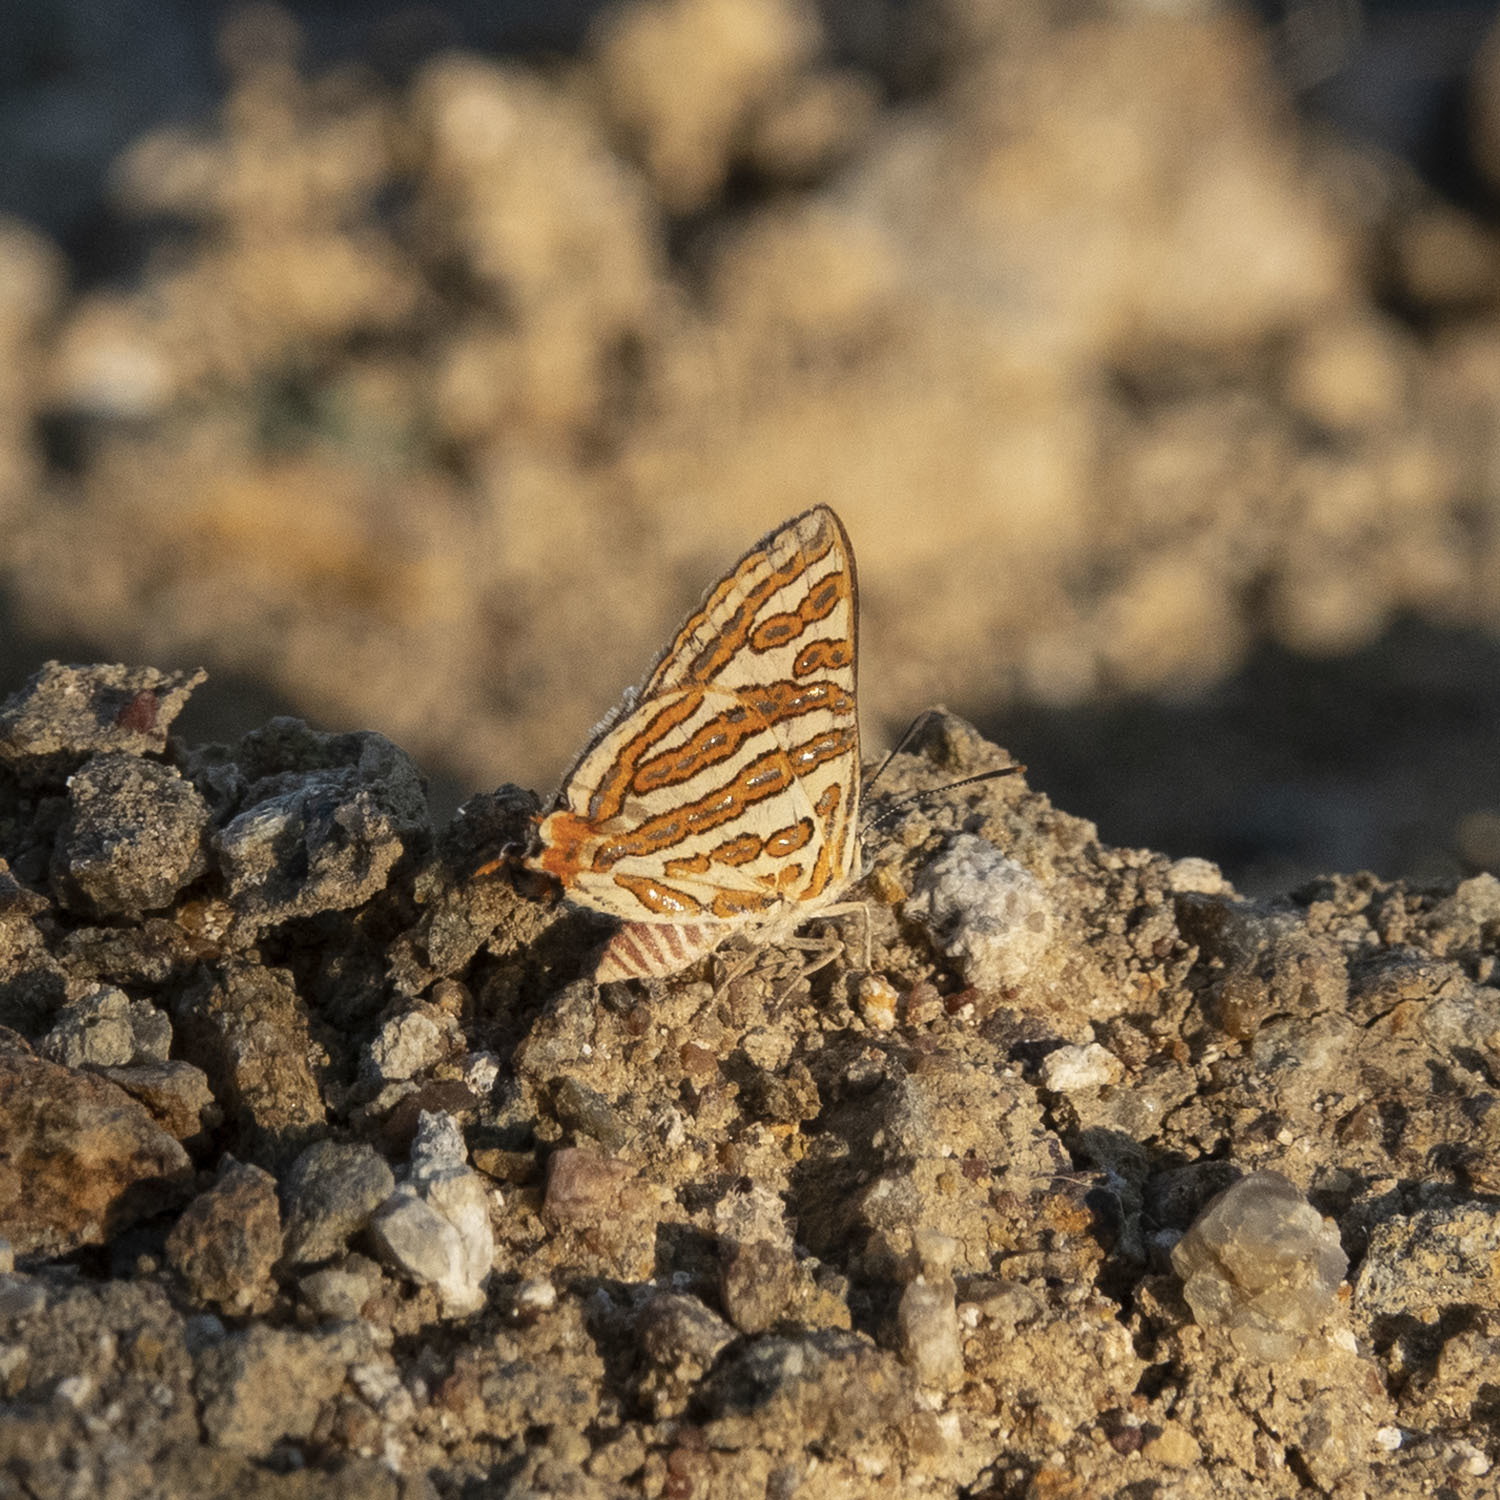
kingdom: Animalia
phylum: Arthropoda
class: Insecta
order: Lepidoptera
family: Lycaenidae
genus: Cigaritis
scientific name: Cigaritis vulcanus
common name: Common silverline
